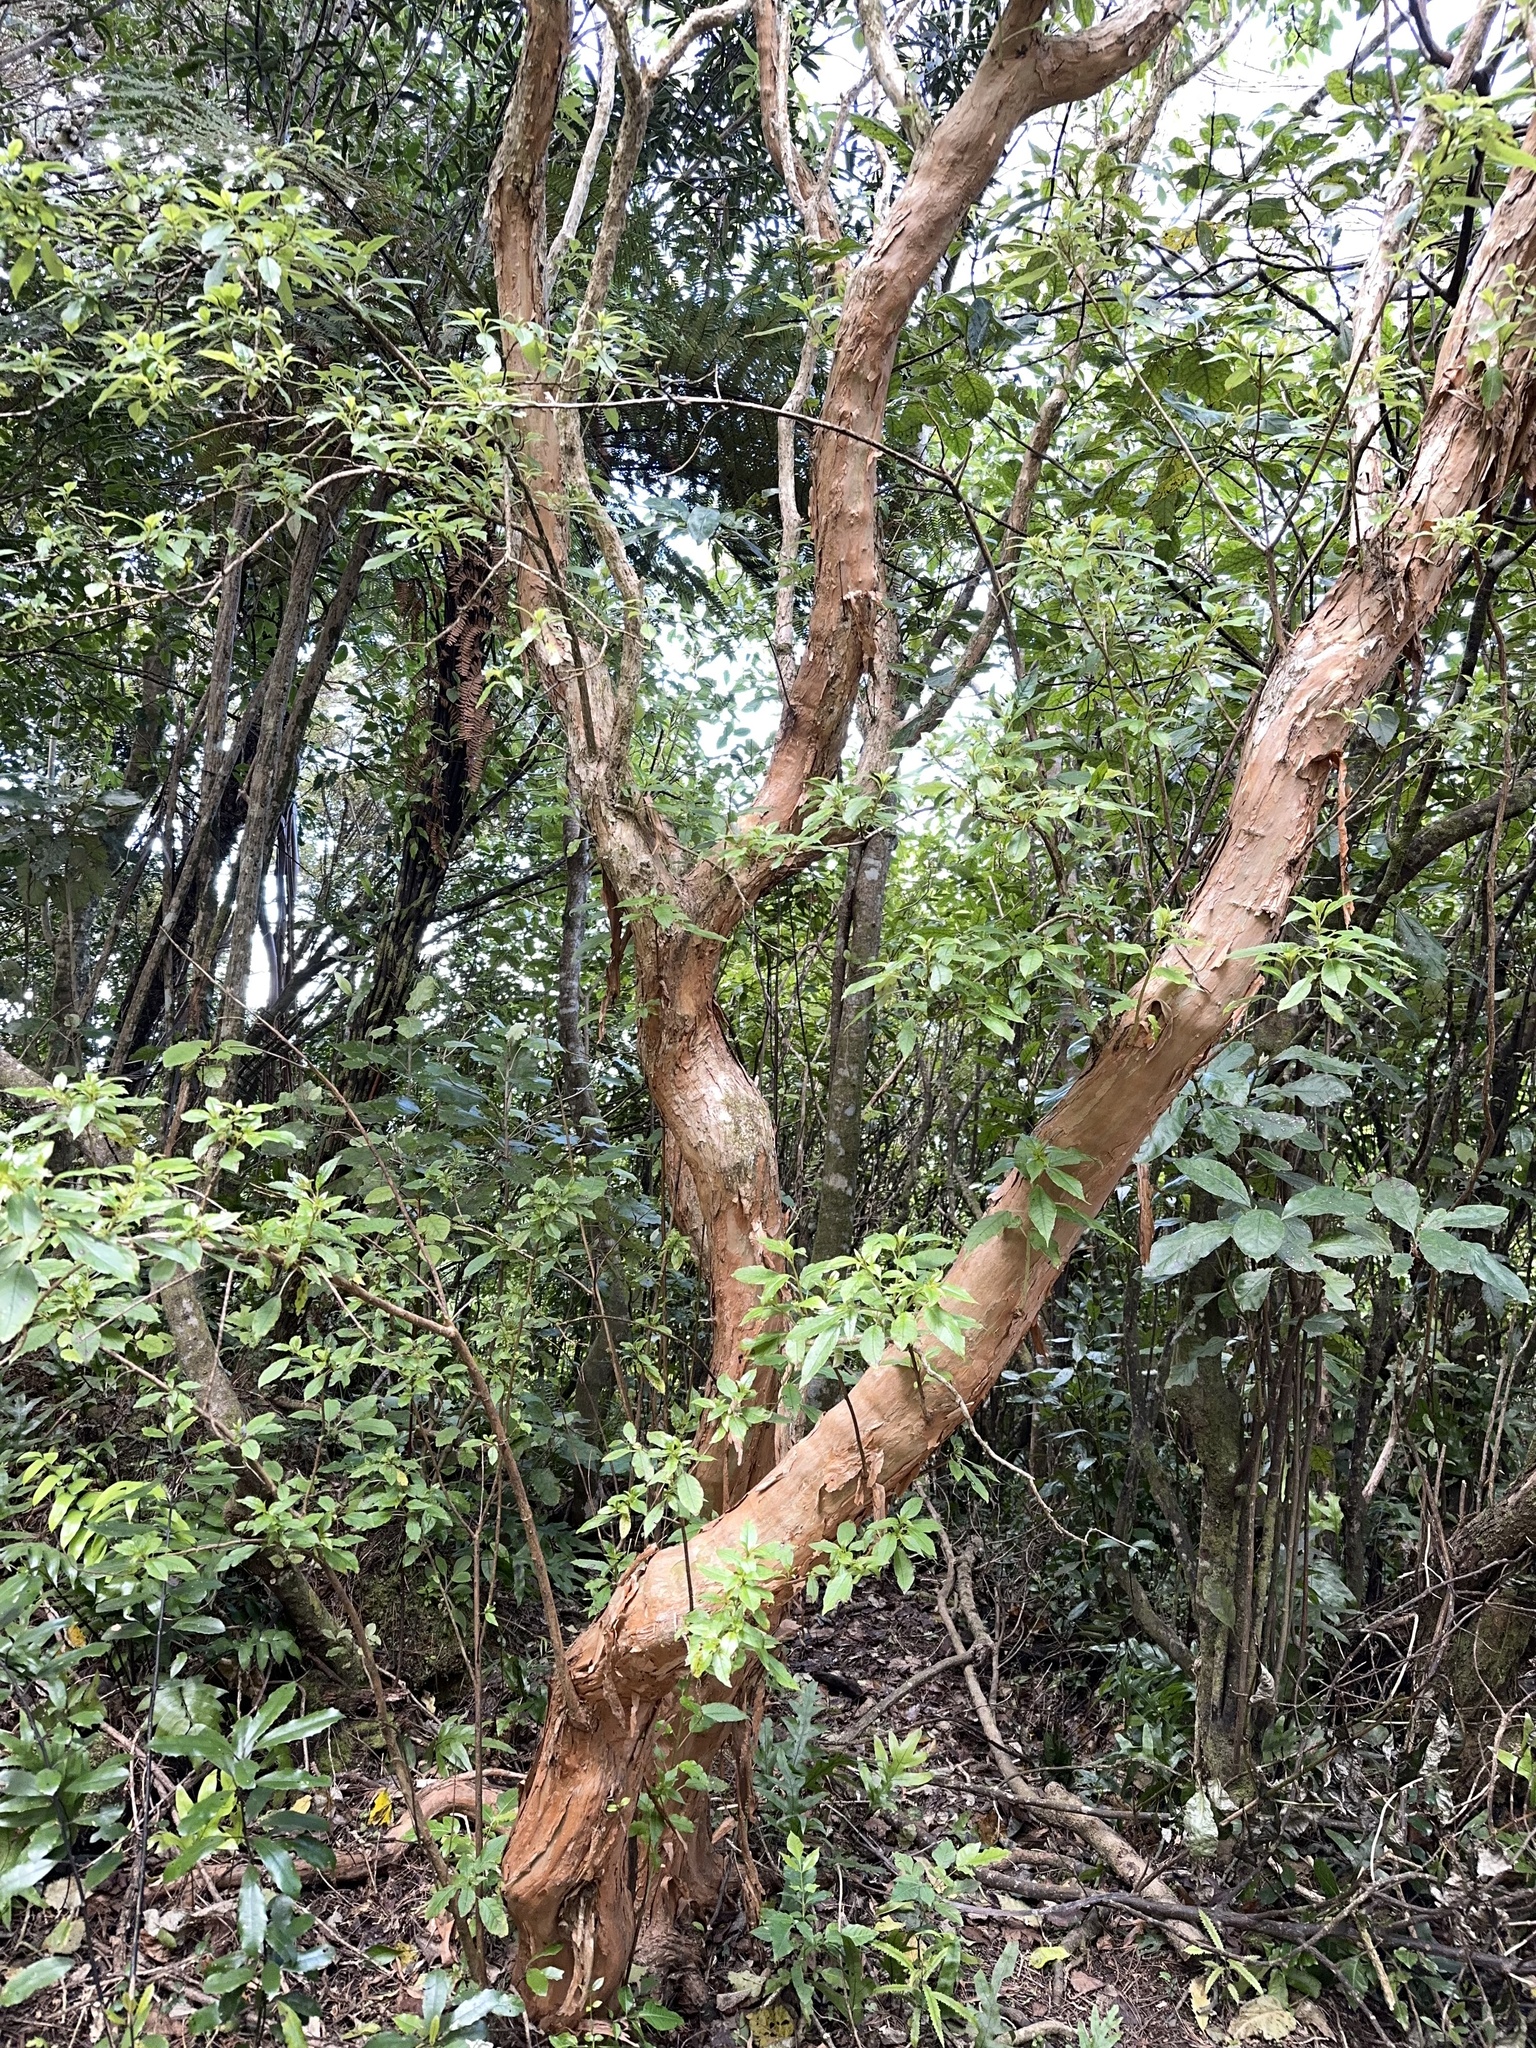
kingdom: Plantae
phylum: Tracheophyta
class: Magnoliopsida
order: Myrtales
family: Onagraceae
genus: Fuchsia
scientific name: Fuchsia excorticata
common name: Tree fuchsia
